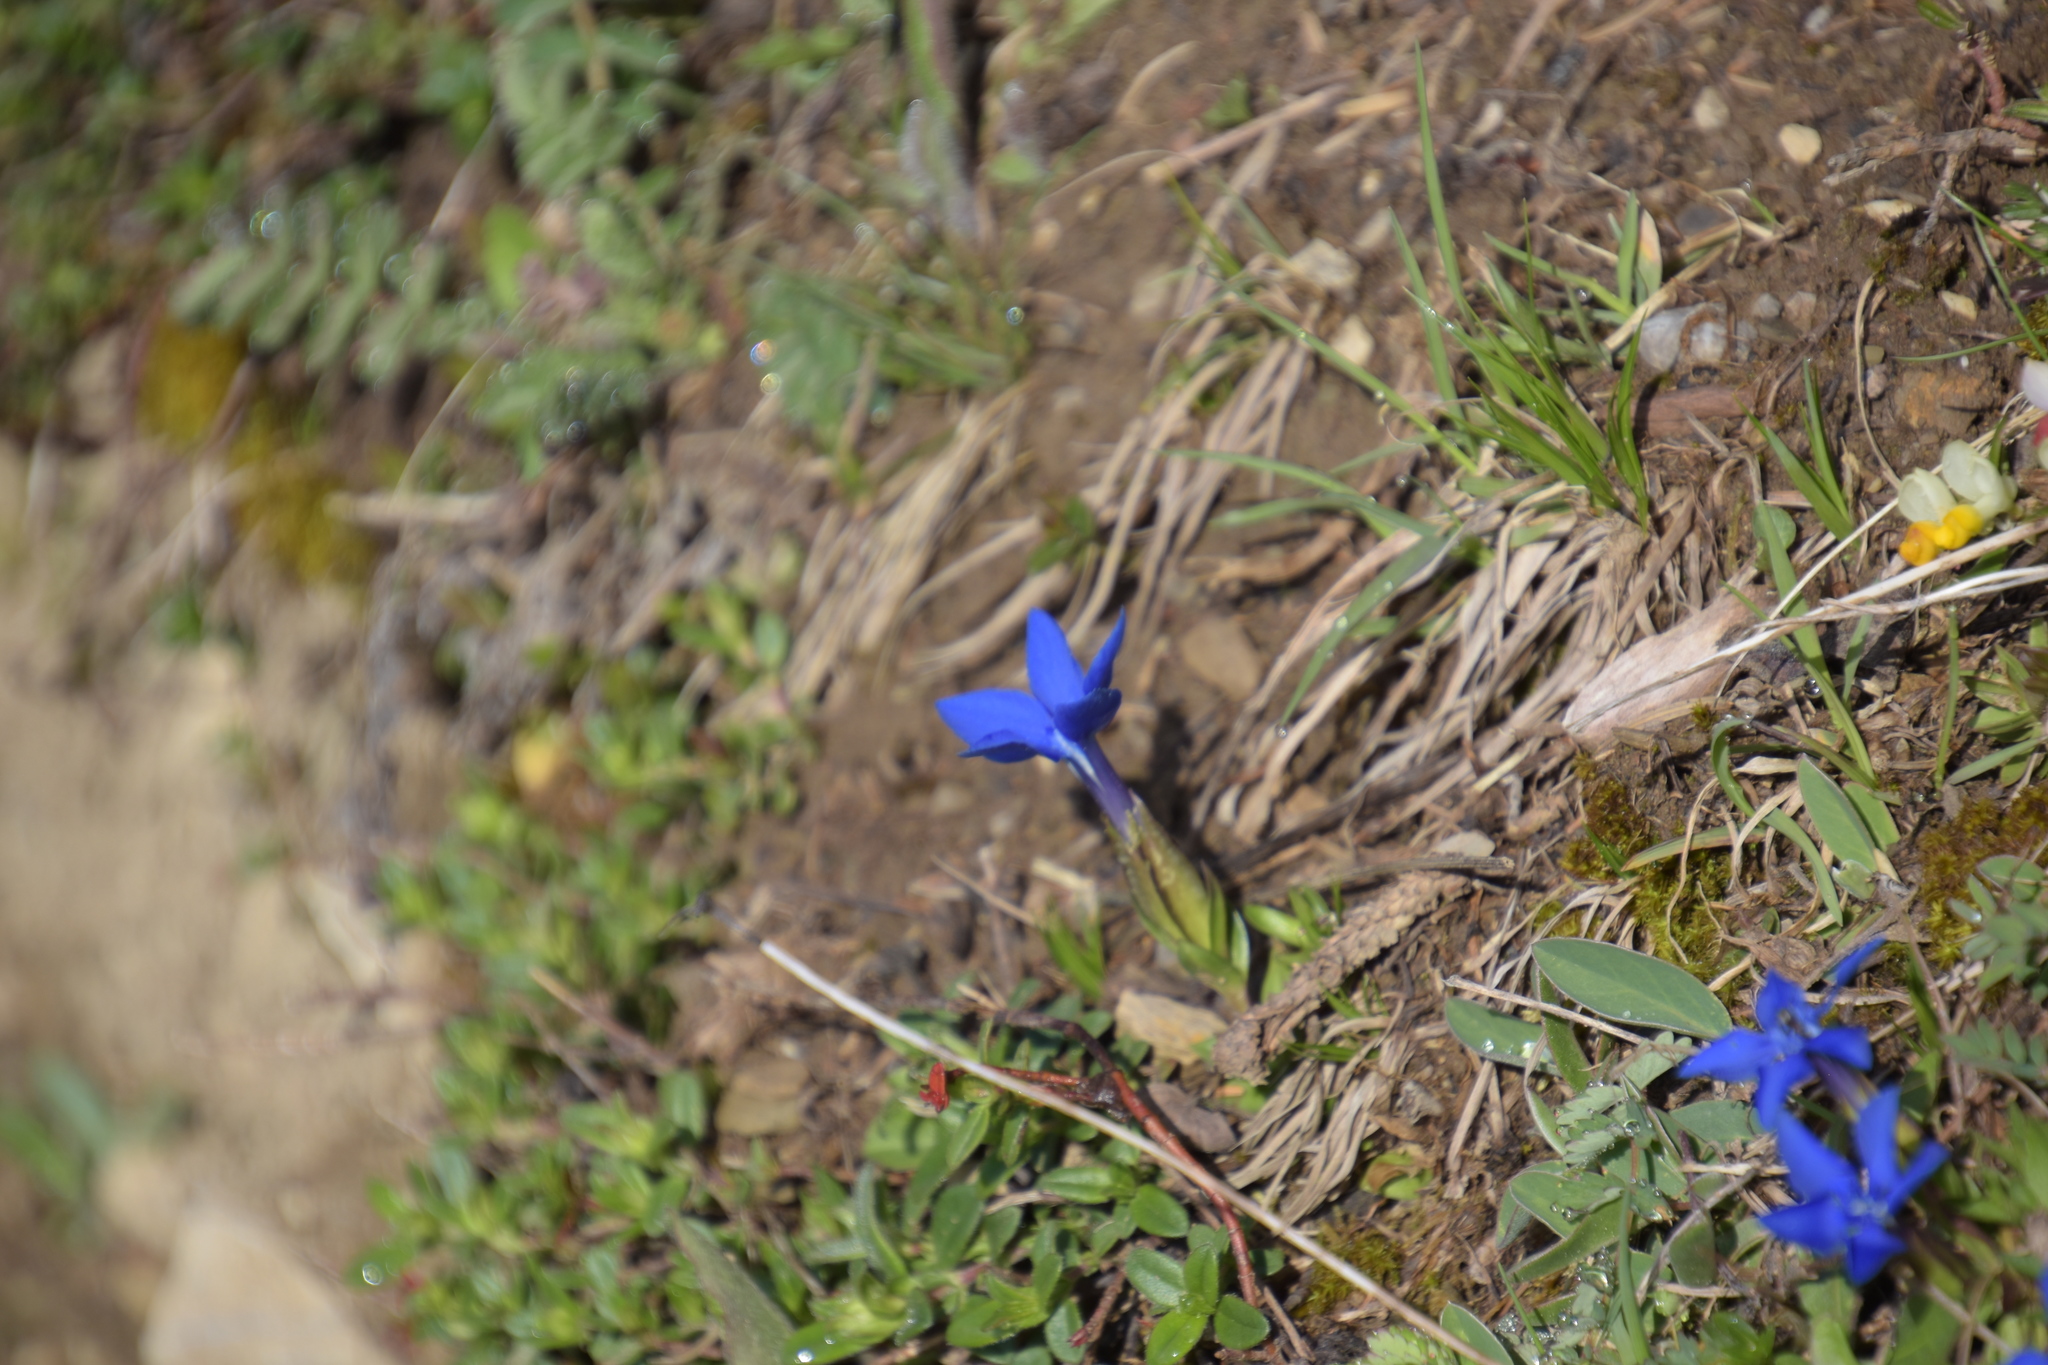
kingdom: Plantae
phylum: Tracheophyta
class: Magnoliopsida
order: Gentianales
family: Gentianaceae
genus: Gentiana
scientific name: Gentiana verna
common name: Spring gentian
